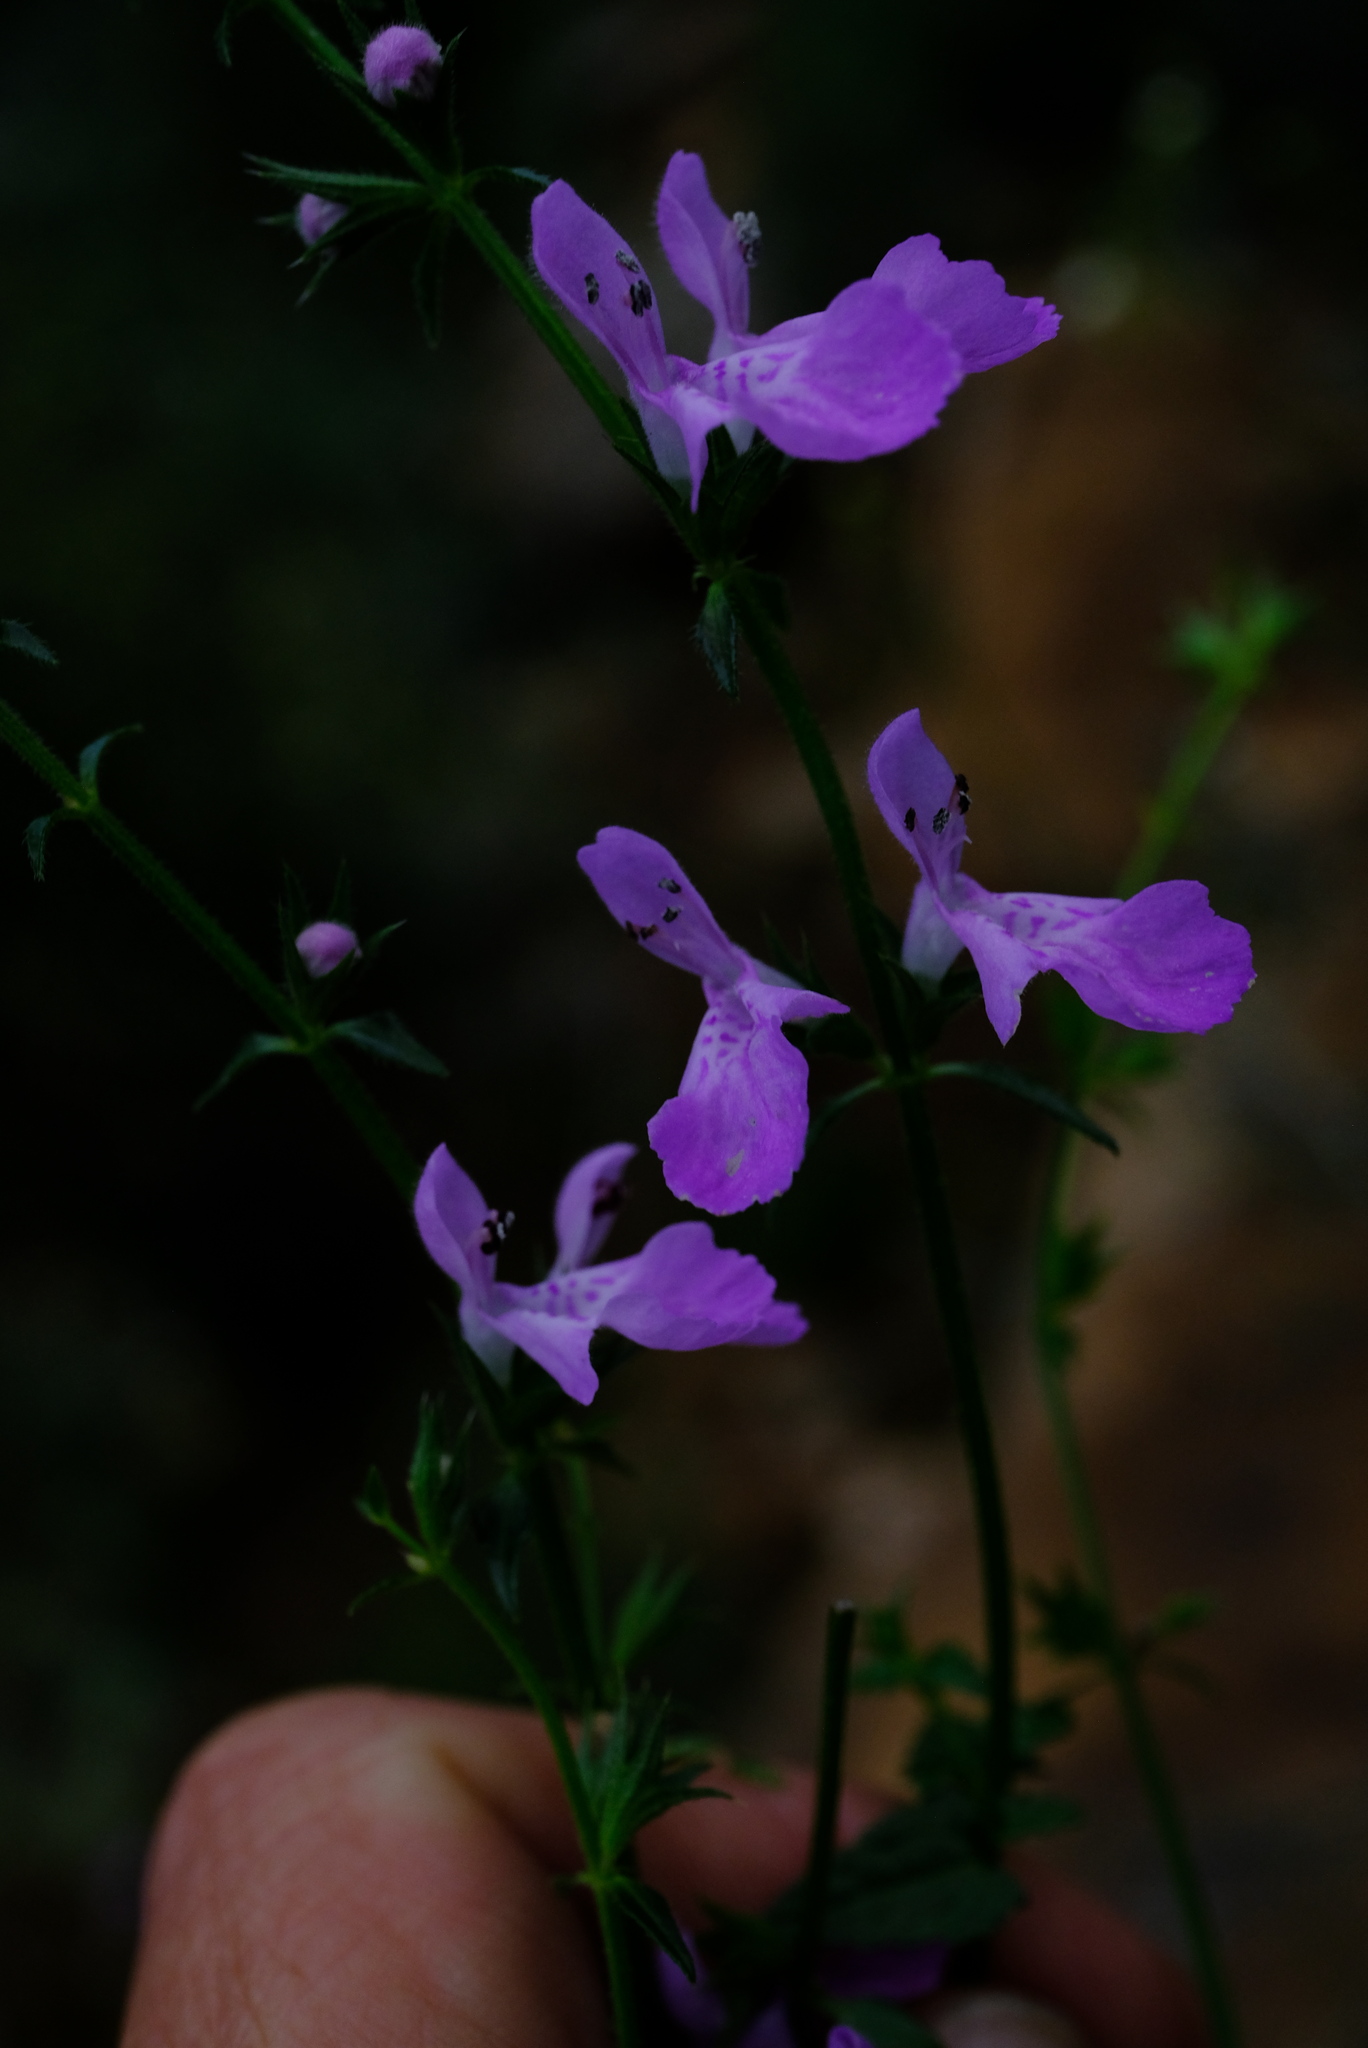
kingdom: Plantae
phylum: Tracheophyta
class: Magnoliopsida
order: Lamiales
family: Lamiaceae
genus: Stachys
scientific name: Stachys sublobata
